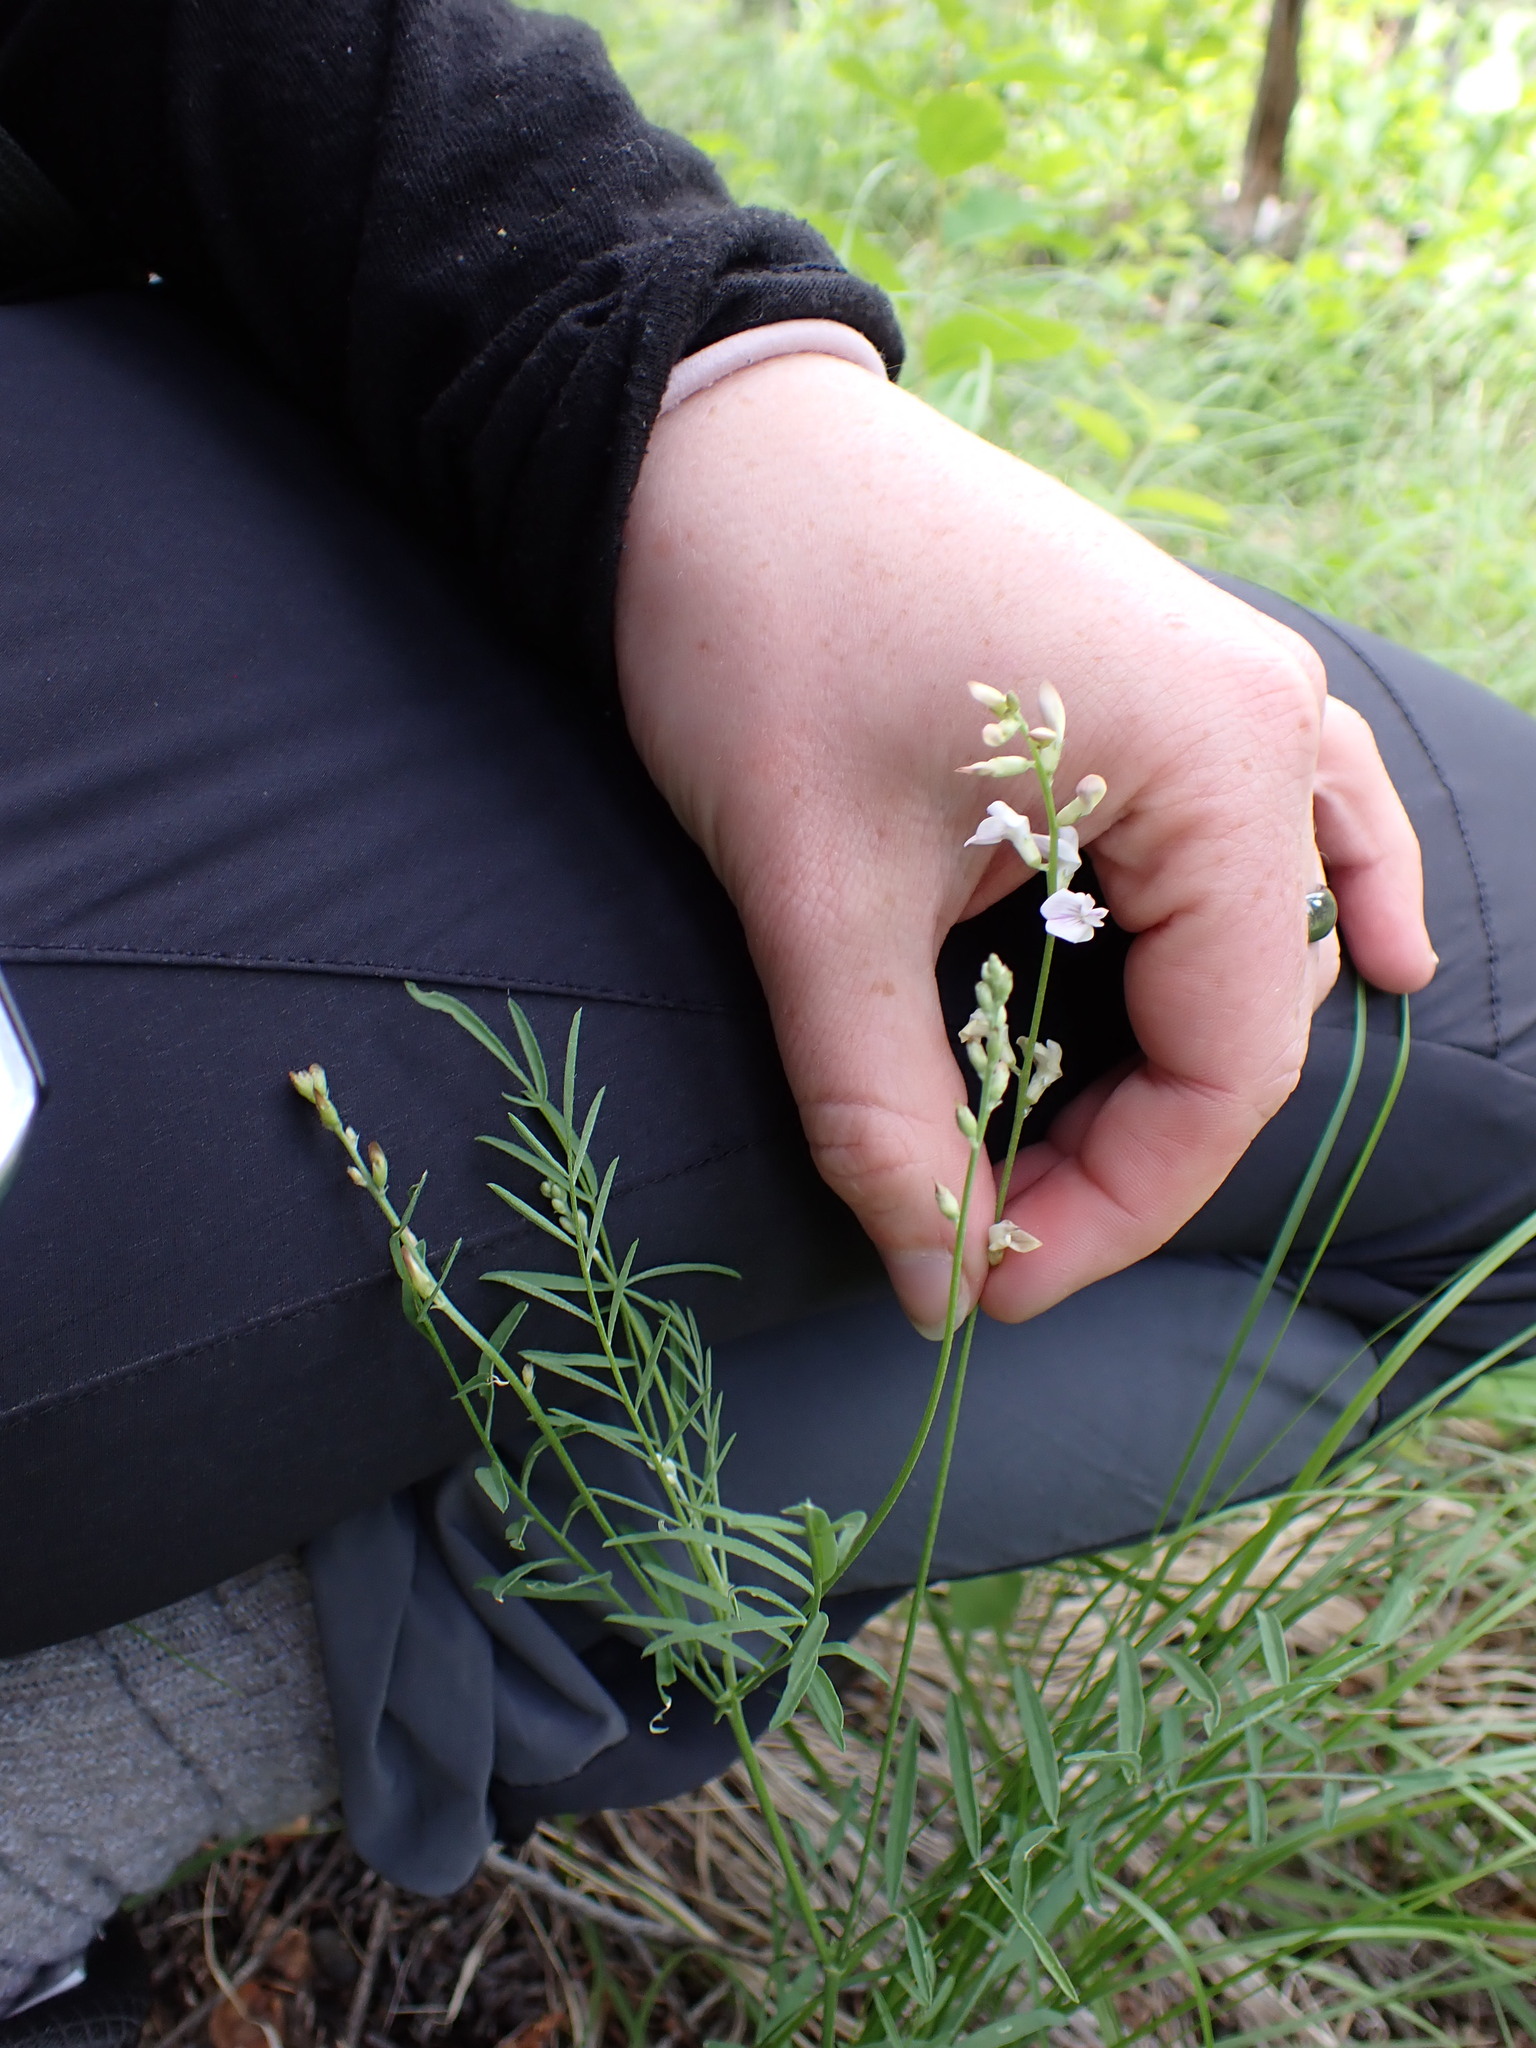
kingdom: Plantae
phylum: Tracheophyta
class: Magnoliopsida
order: Fabales
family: Fabaceae
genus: Astragalus
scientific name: Astragalus miser
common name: Timber milkvetch
